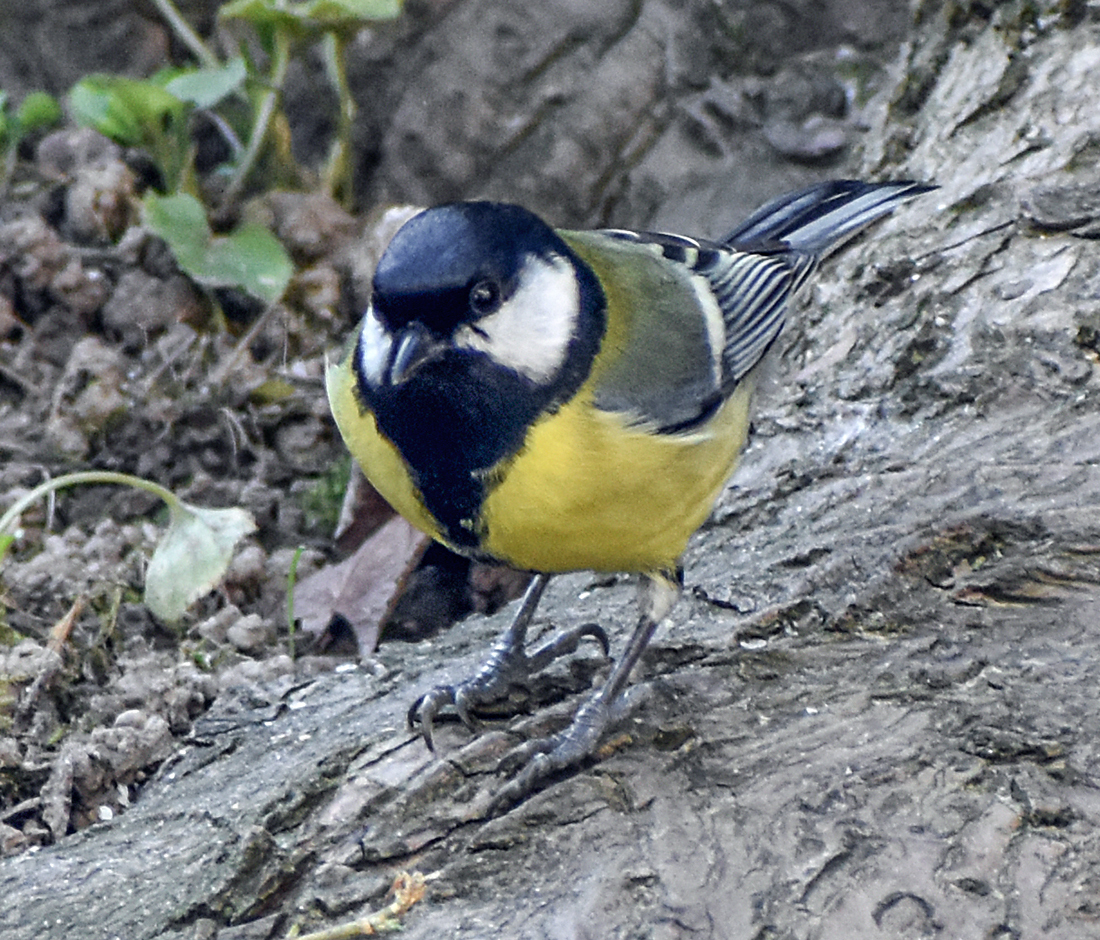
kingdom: Animalia
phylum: Chordata
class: Aves
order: Passeriformes
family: Paridae
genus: Parus
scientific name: Parus major
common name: Great tit
